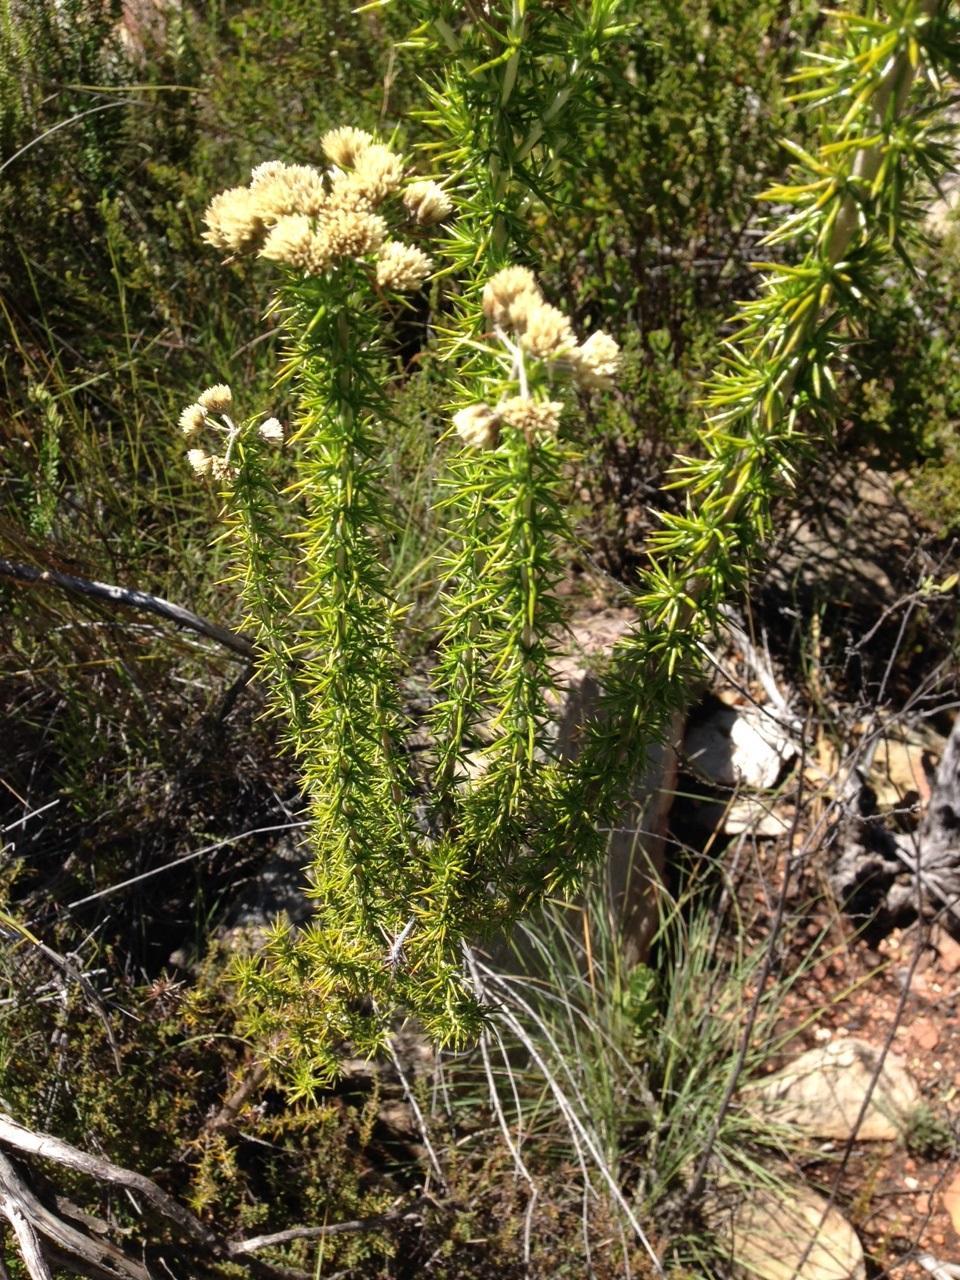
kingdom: Plantae
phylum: Tracheophyta
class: Magnoliopsida
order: Asterales
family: Asteraceae
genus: Metalasia
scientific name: Metalasia acuta
